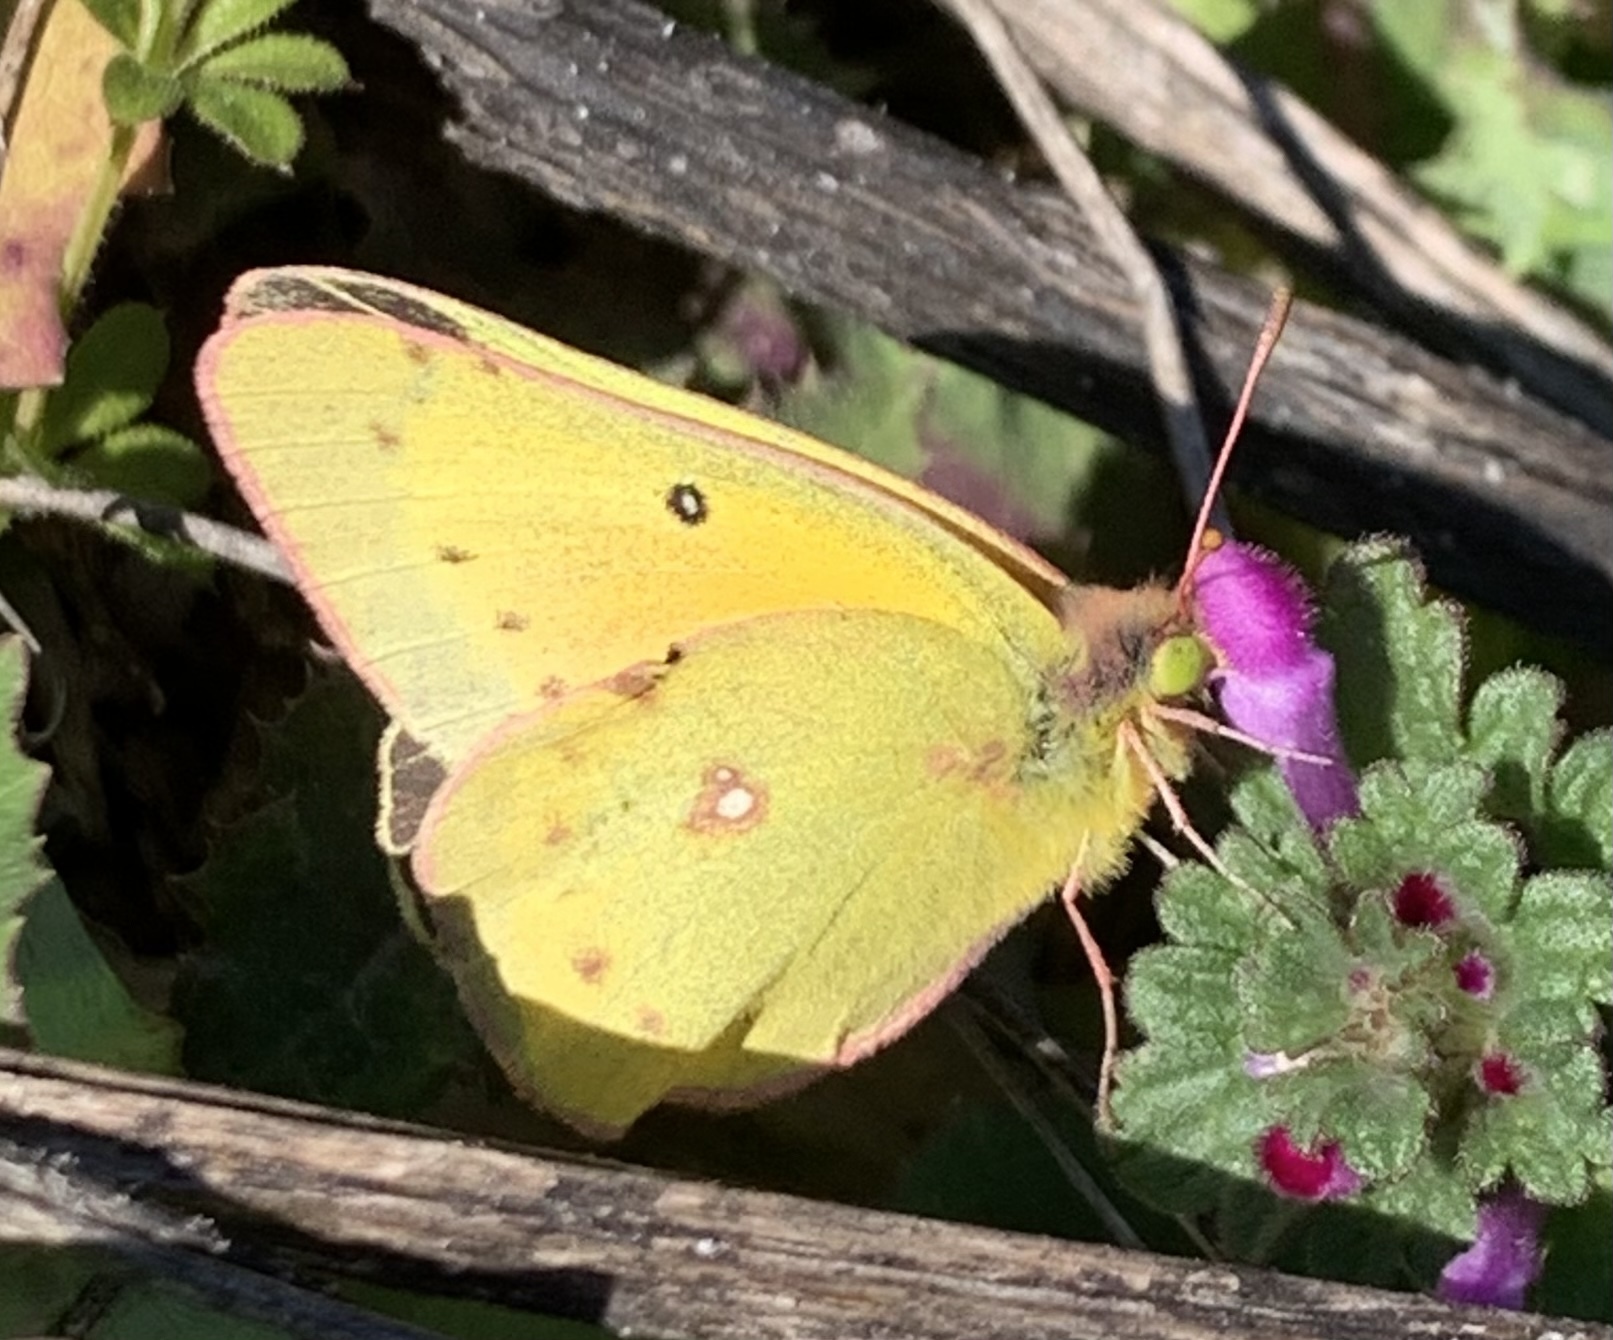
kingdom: Animalia
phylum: Arthropoda
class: Insecta
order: Lepidoptera
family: Pieridae
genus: Colias
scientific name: Colias eurytheme
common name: Alfalfa butterfly
